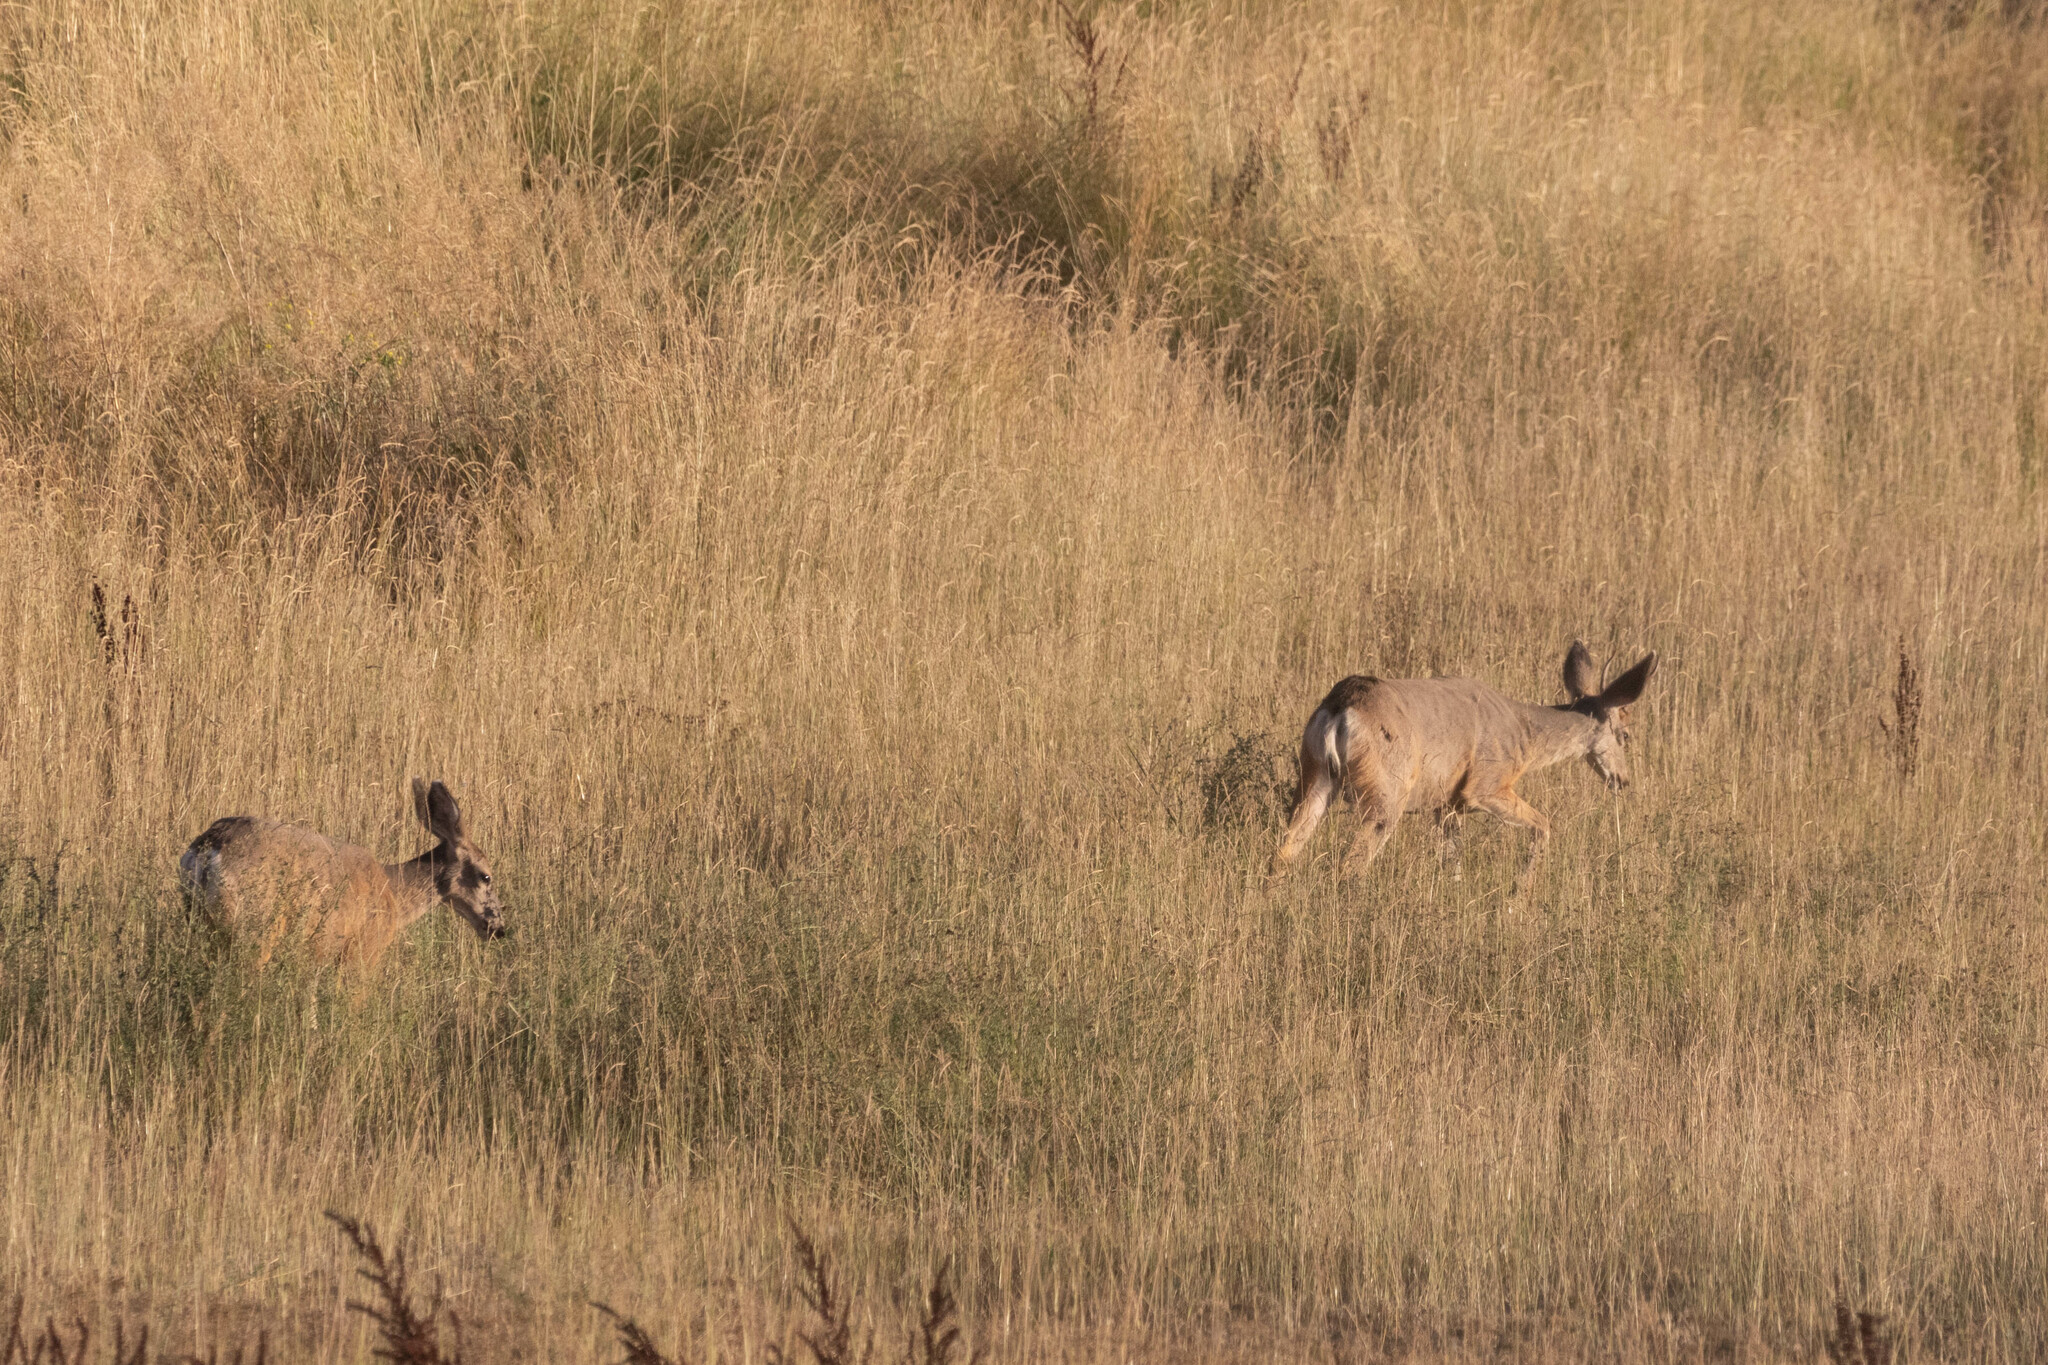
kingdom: Animalia
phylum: Chordata
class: Mammalia
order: Artiodactyla
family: Cervidae
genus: Odocoileus
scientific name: Odocoileus hemionus
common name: Mule deer
